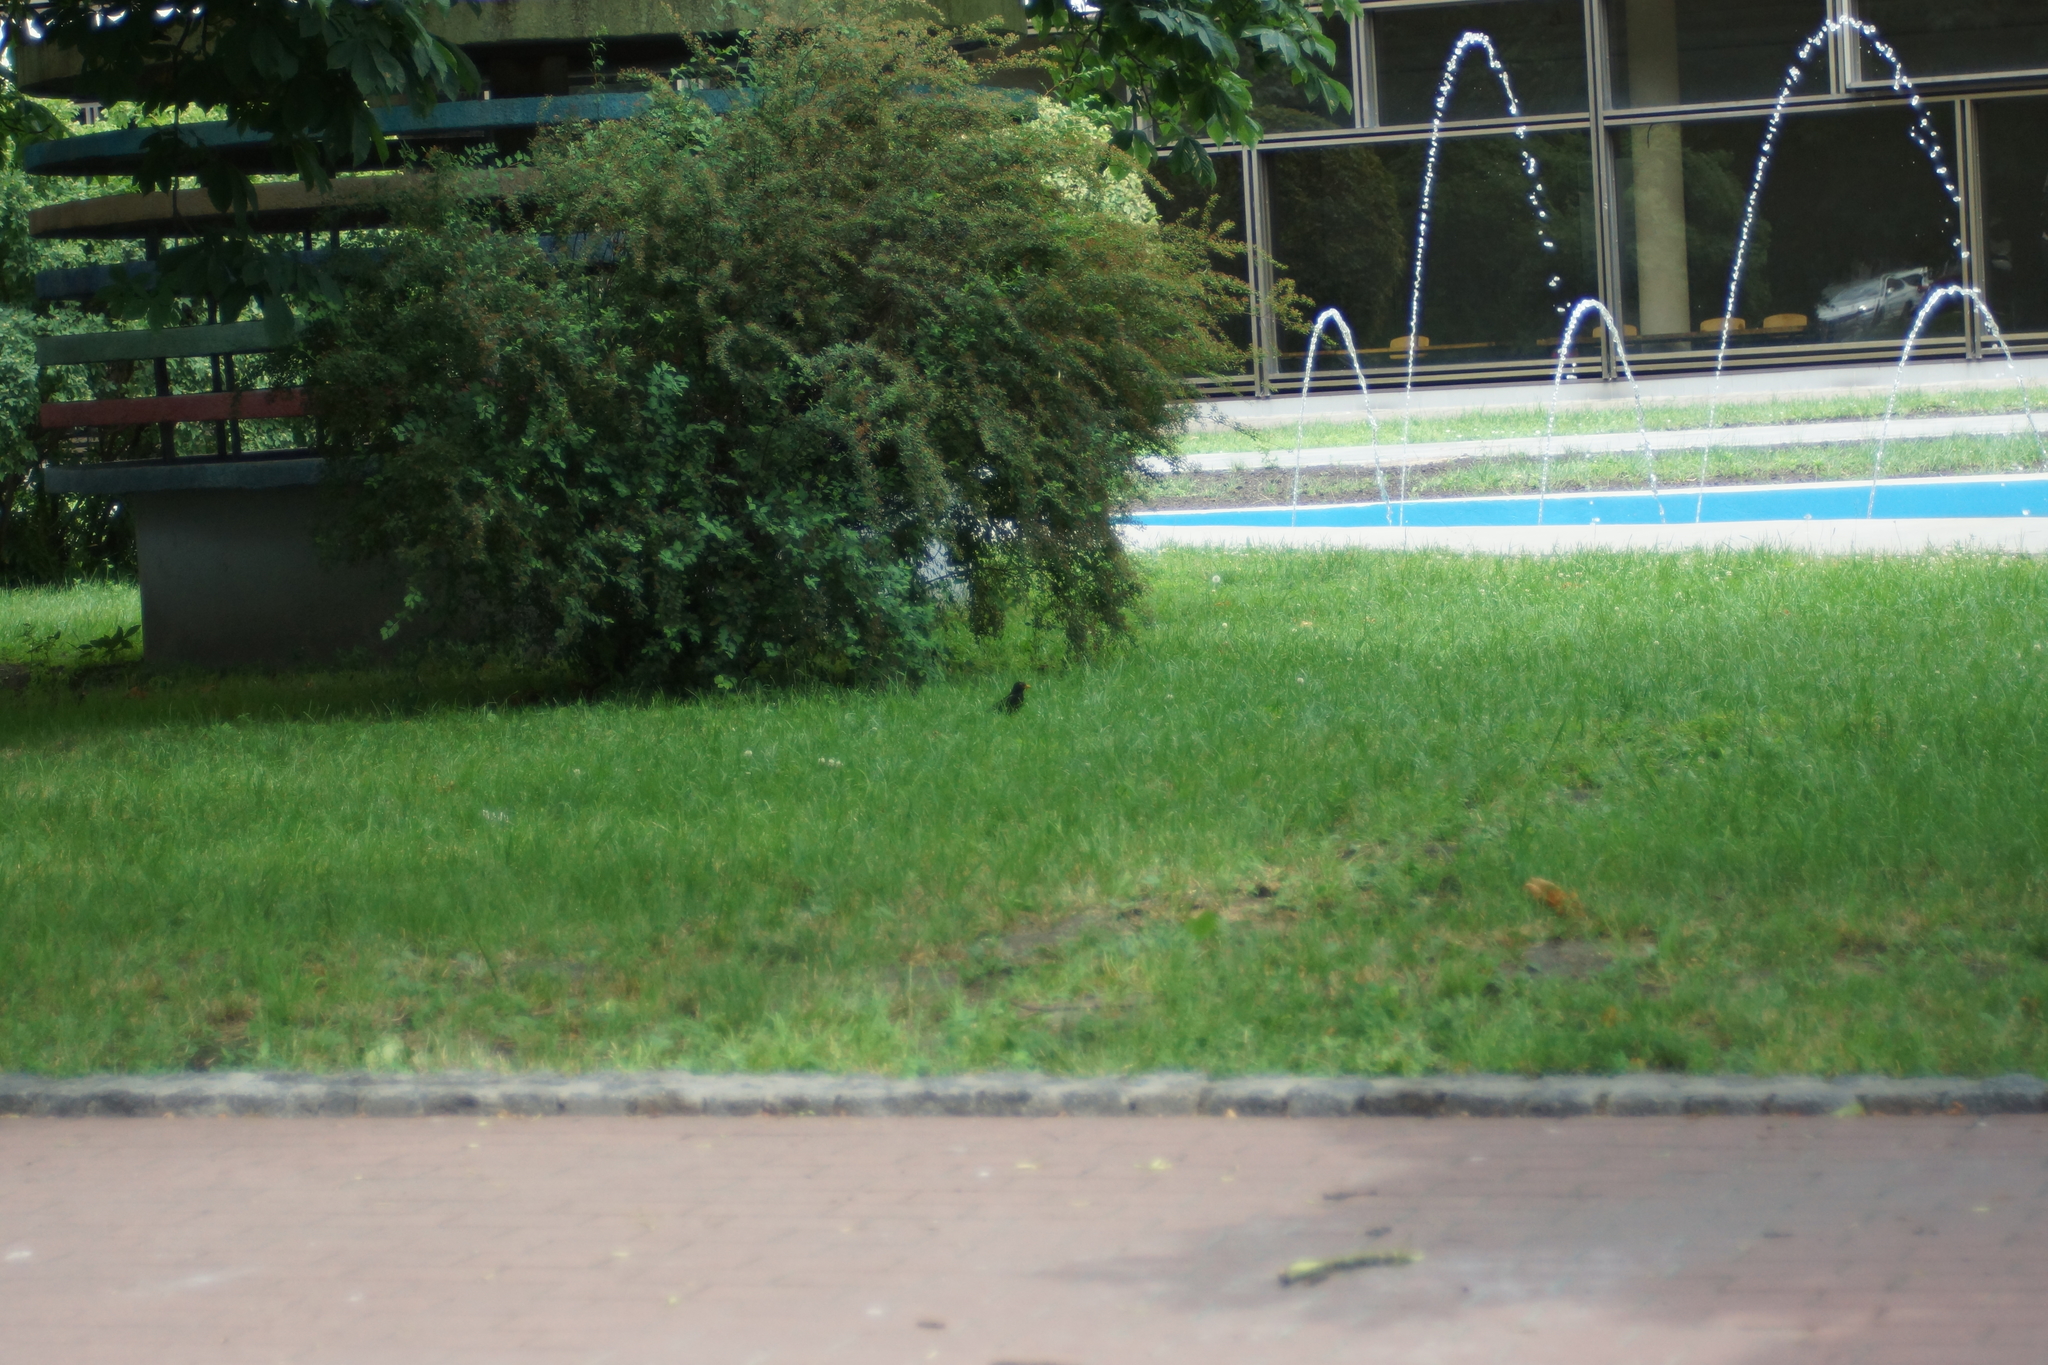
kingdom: Animalia
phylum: Chordata
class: Aves
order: Passeriformes
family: Turdidae
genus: Turdus
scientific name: Turdus merula
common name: Common blackbird
